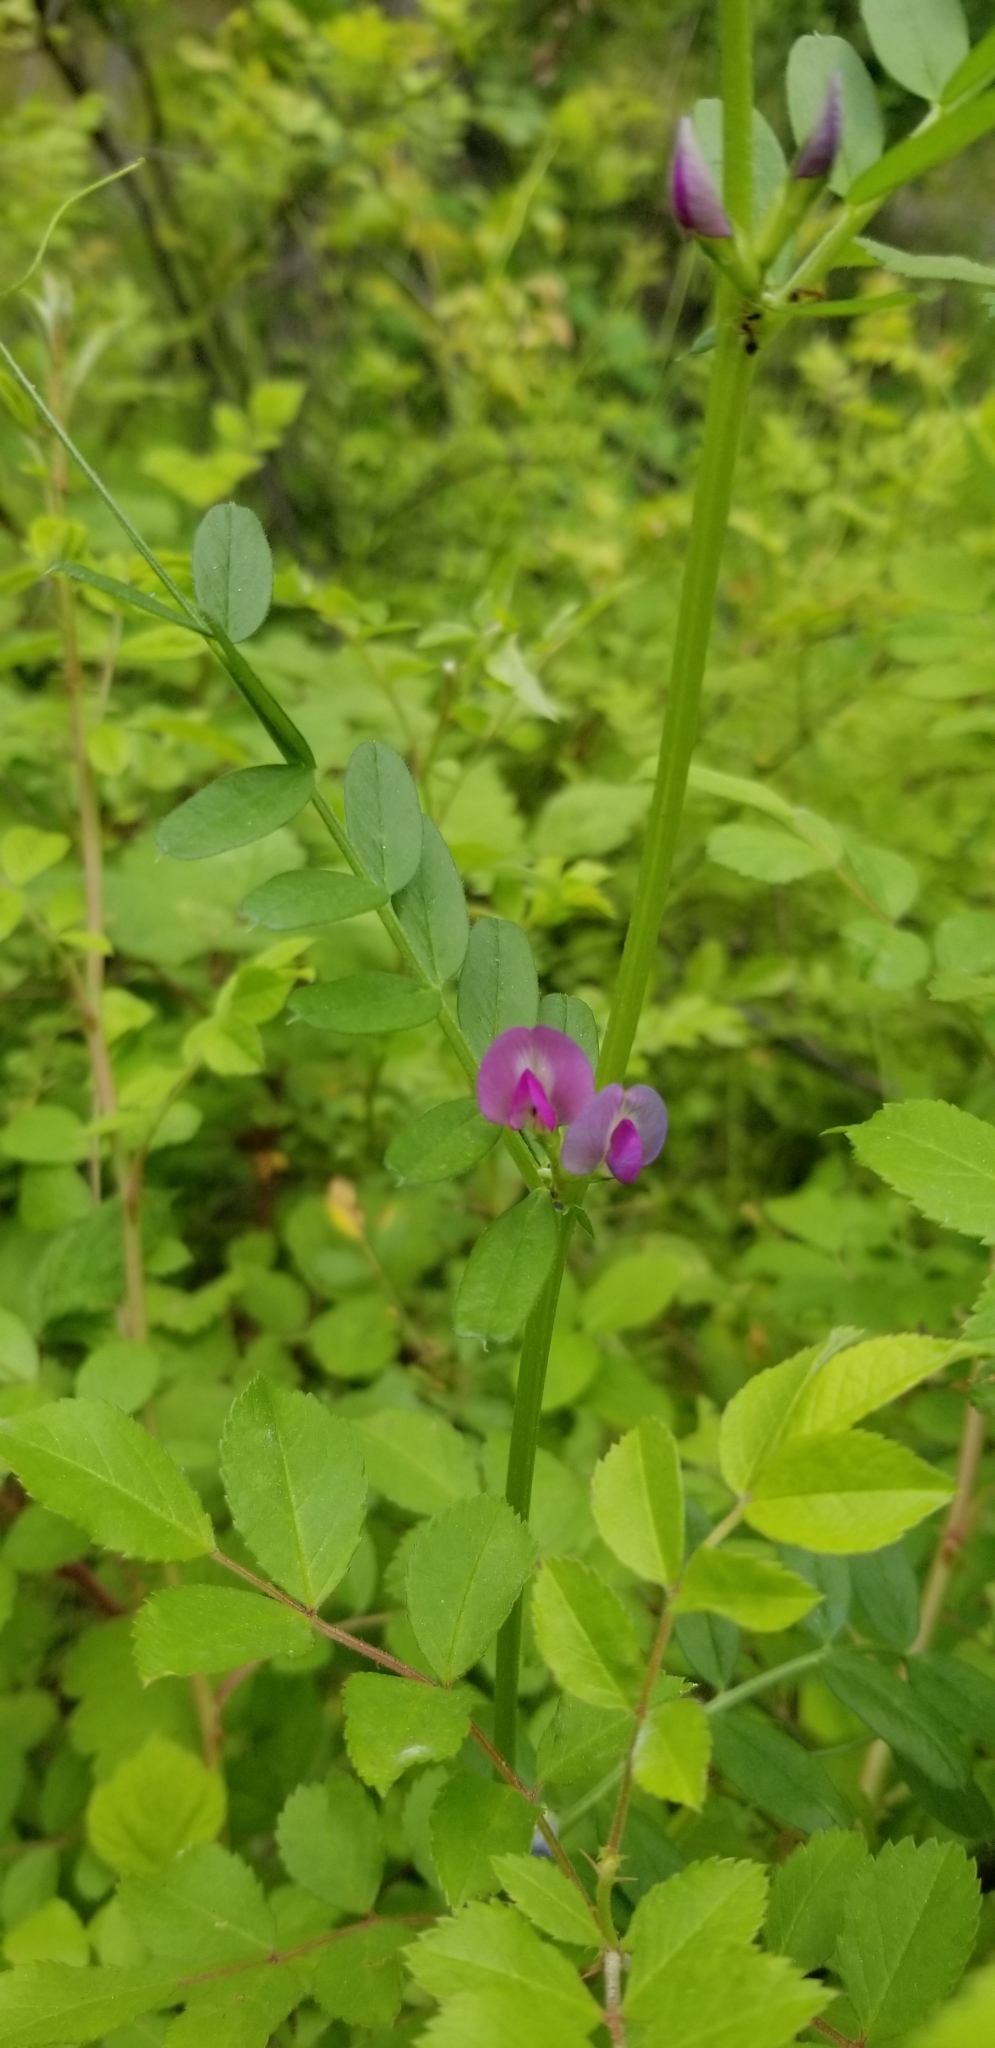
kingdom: Plantae
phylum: Tracheophyta
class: Magnoliopsida
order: Fabales
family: Fabaceae
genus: Vicia
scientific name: Vicia sativa
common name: Garden vetch
